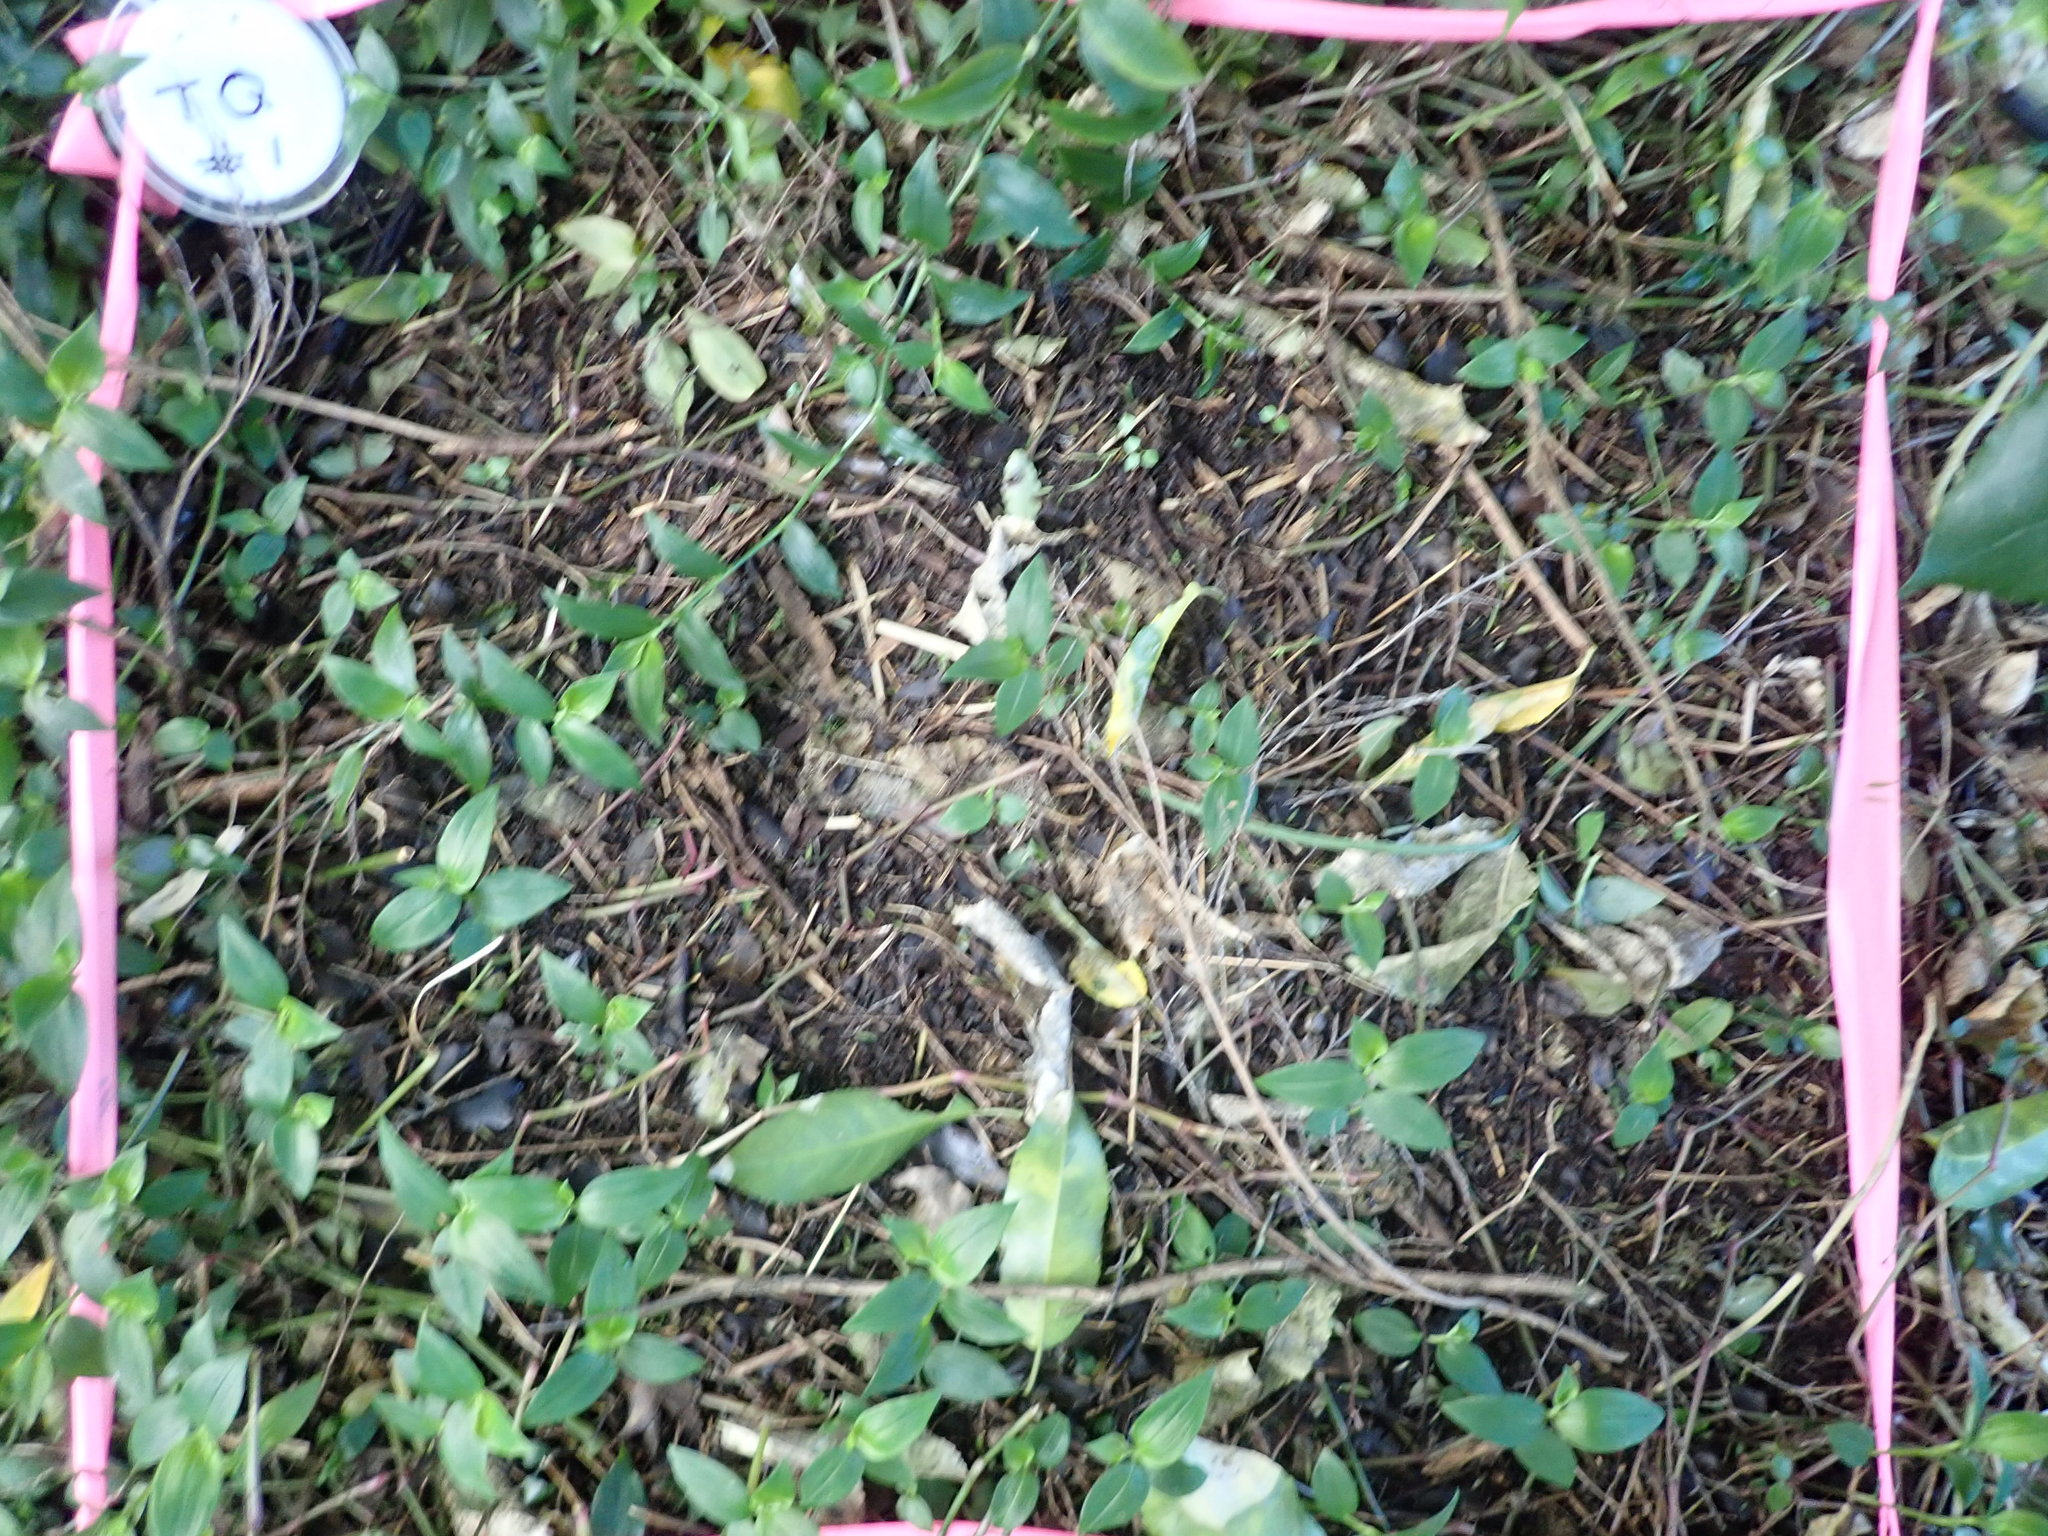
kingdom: Plantae
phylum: Tracheophyta
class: Liliopsida
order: Commelinales
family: Commelinaceae
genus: Tradescantia
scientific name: Tradescantia fluminensis
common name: Wandering-jew
